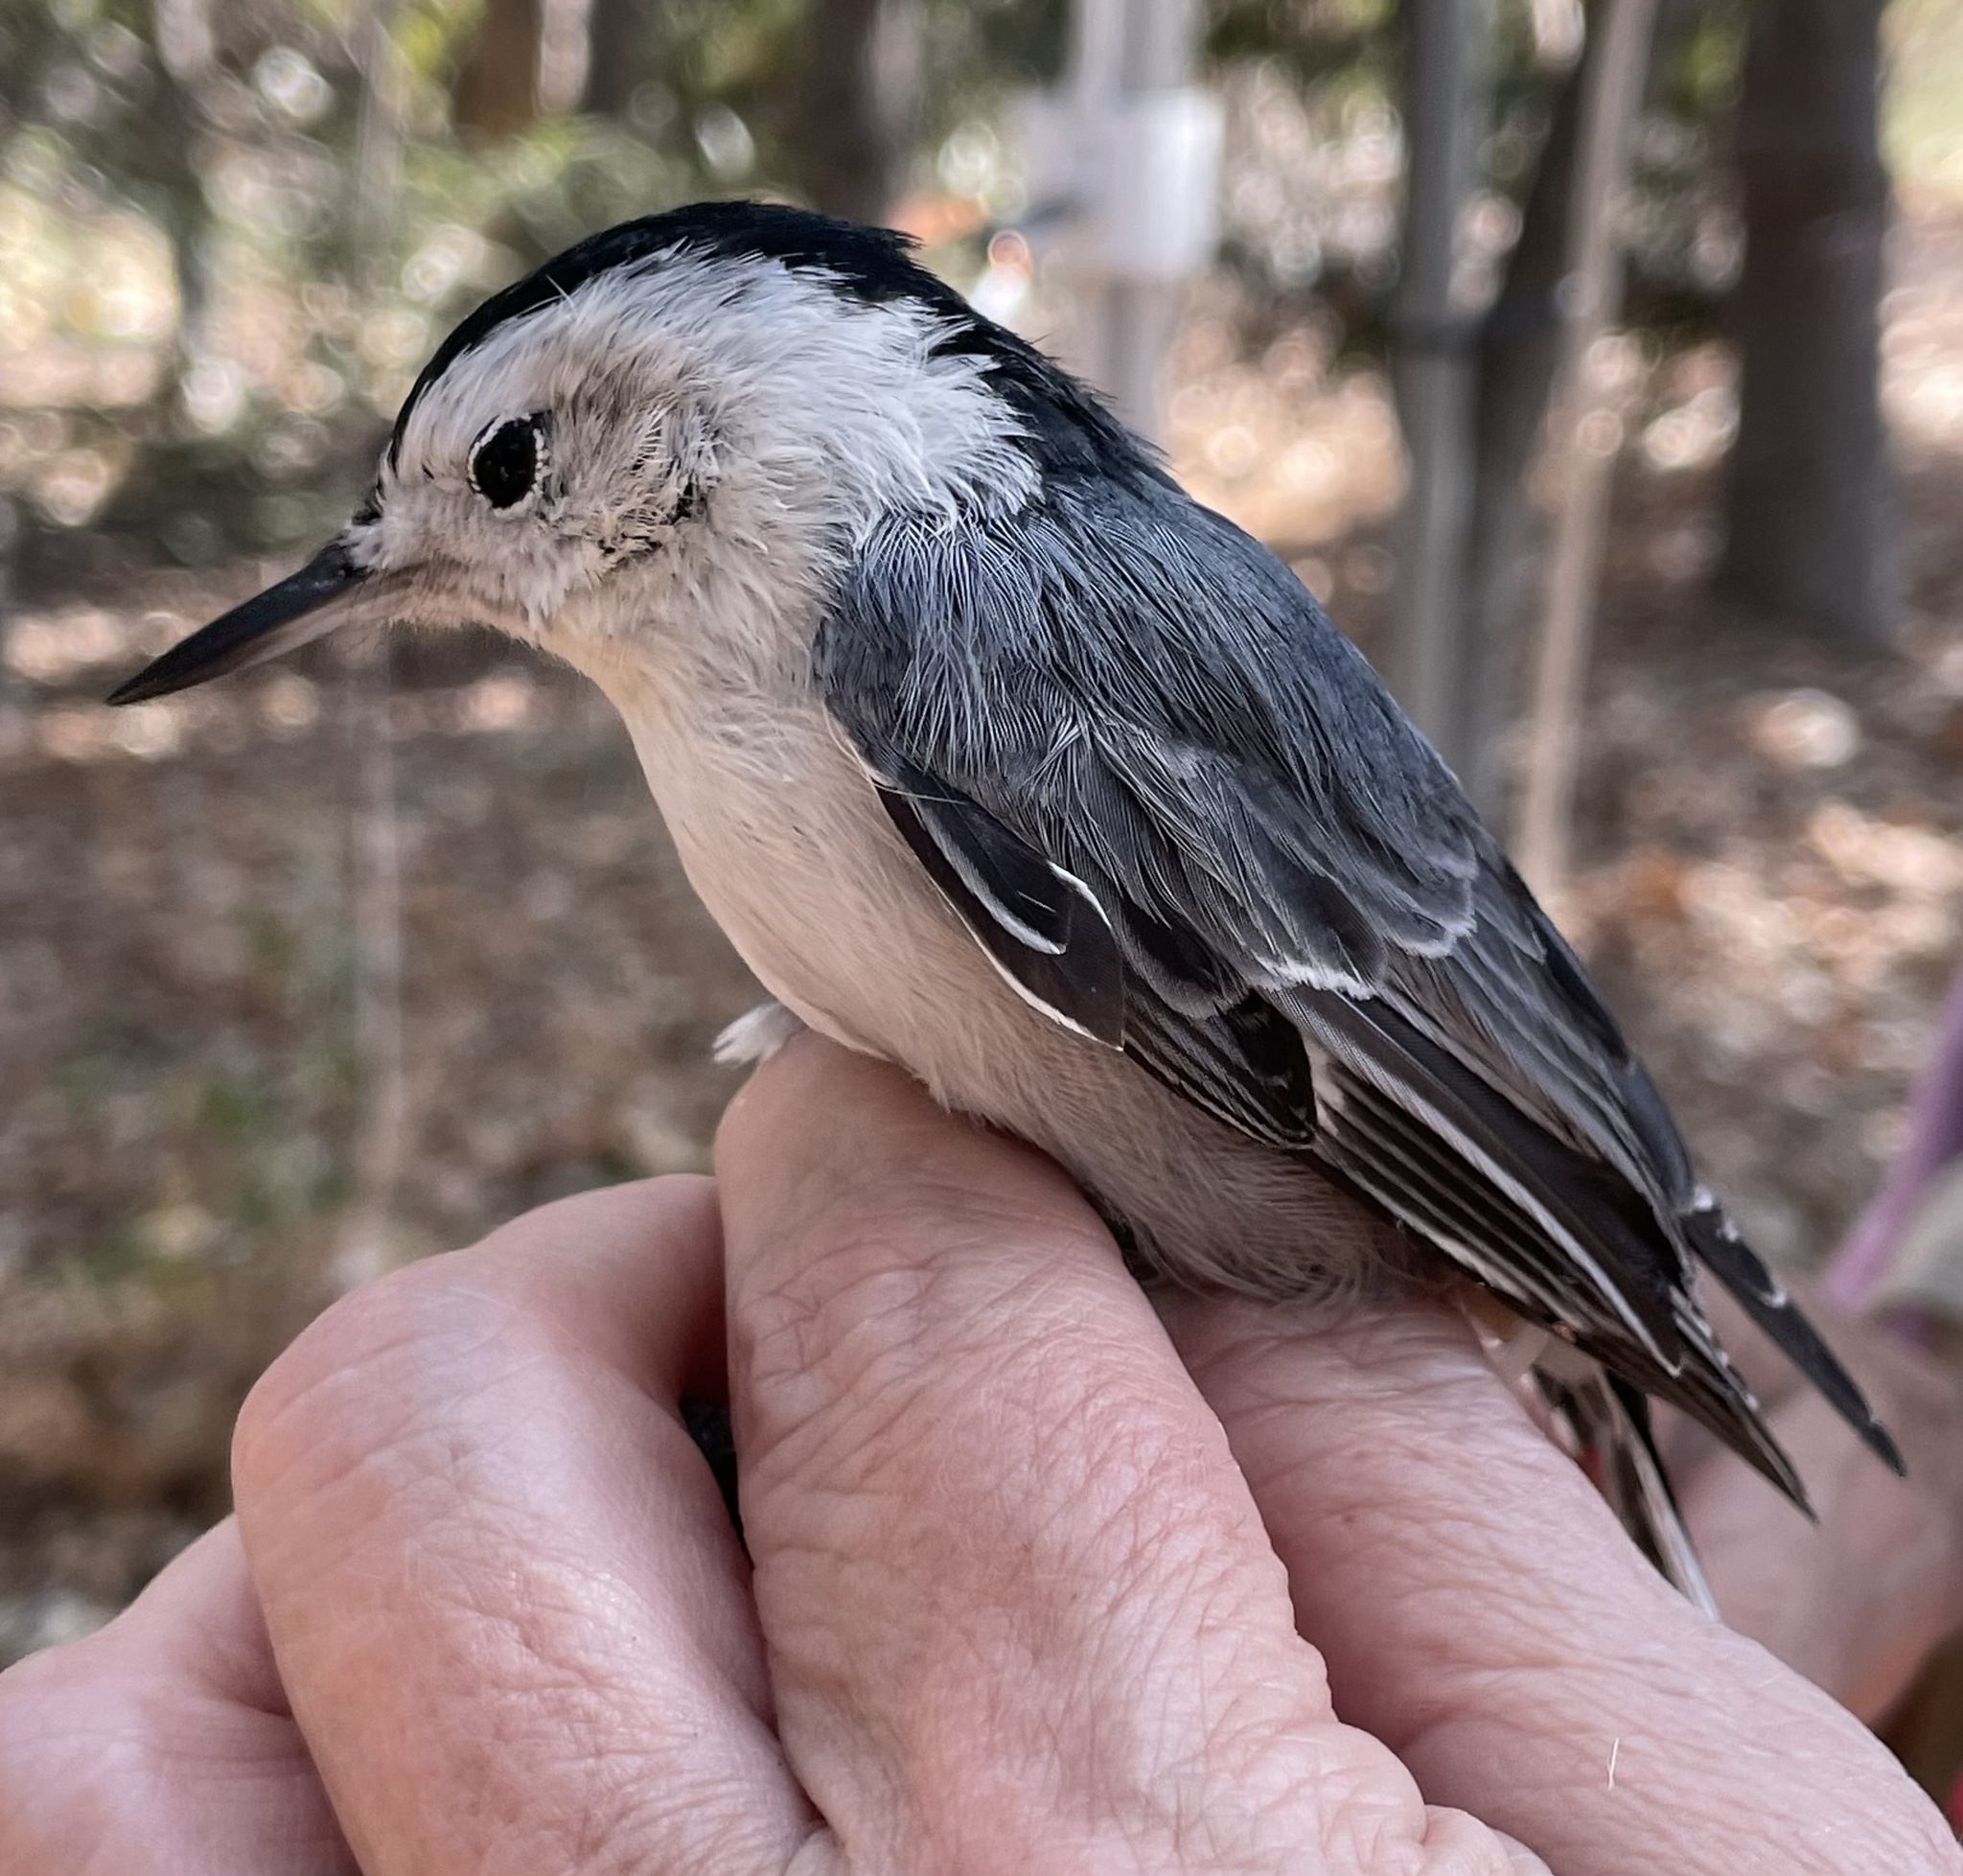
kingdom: Animalia
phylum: Chordata
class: Aves
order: Passeriformes
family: Sittidae
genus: Sitta
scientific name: Sitta carolinensis
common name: White-breasted nuthatch
